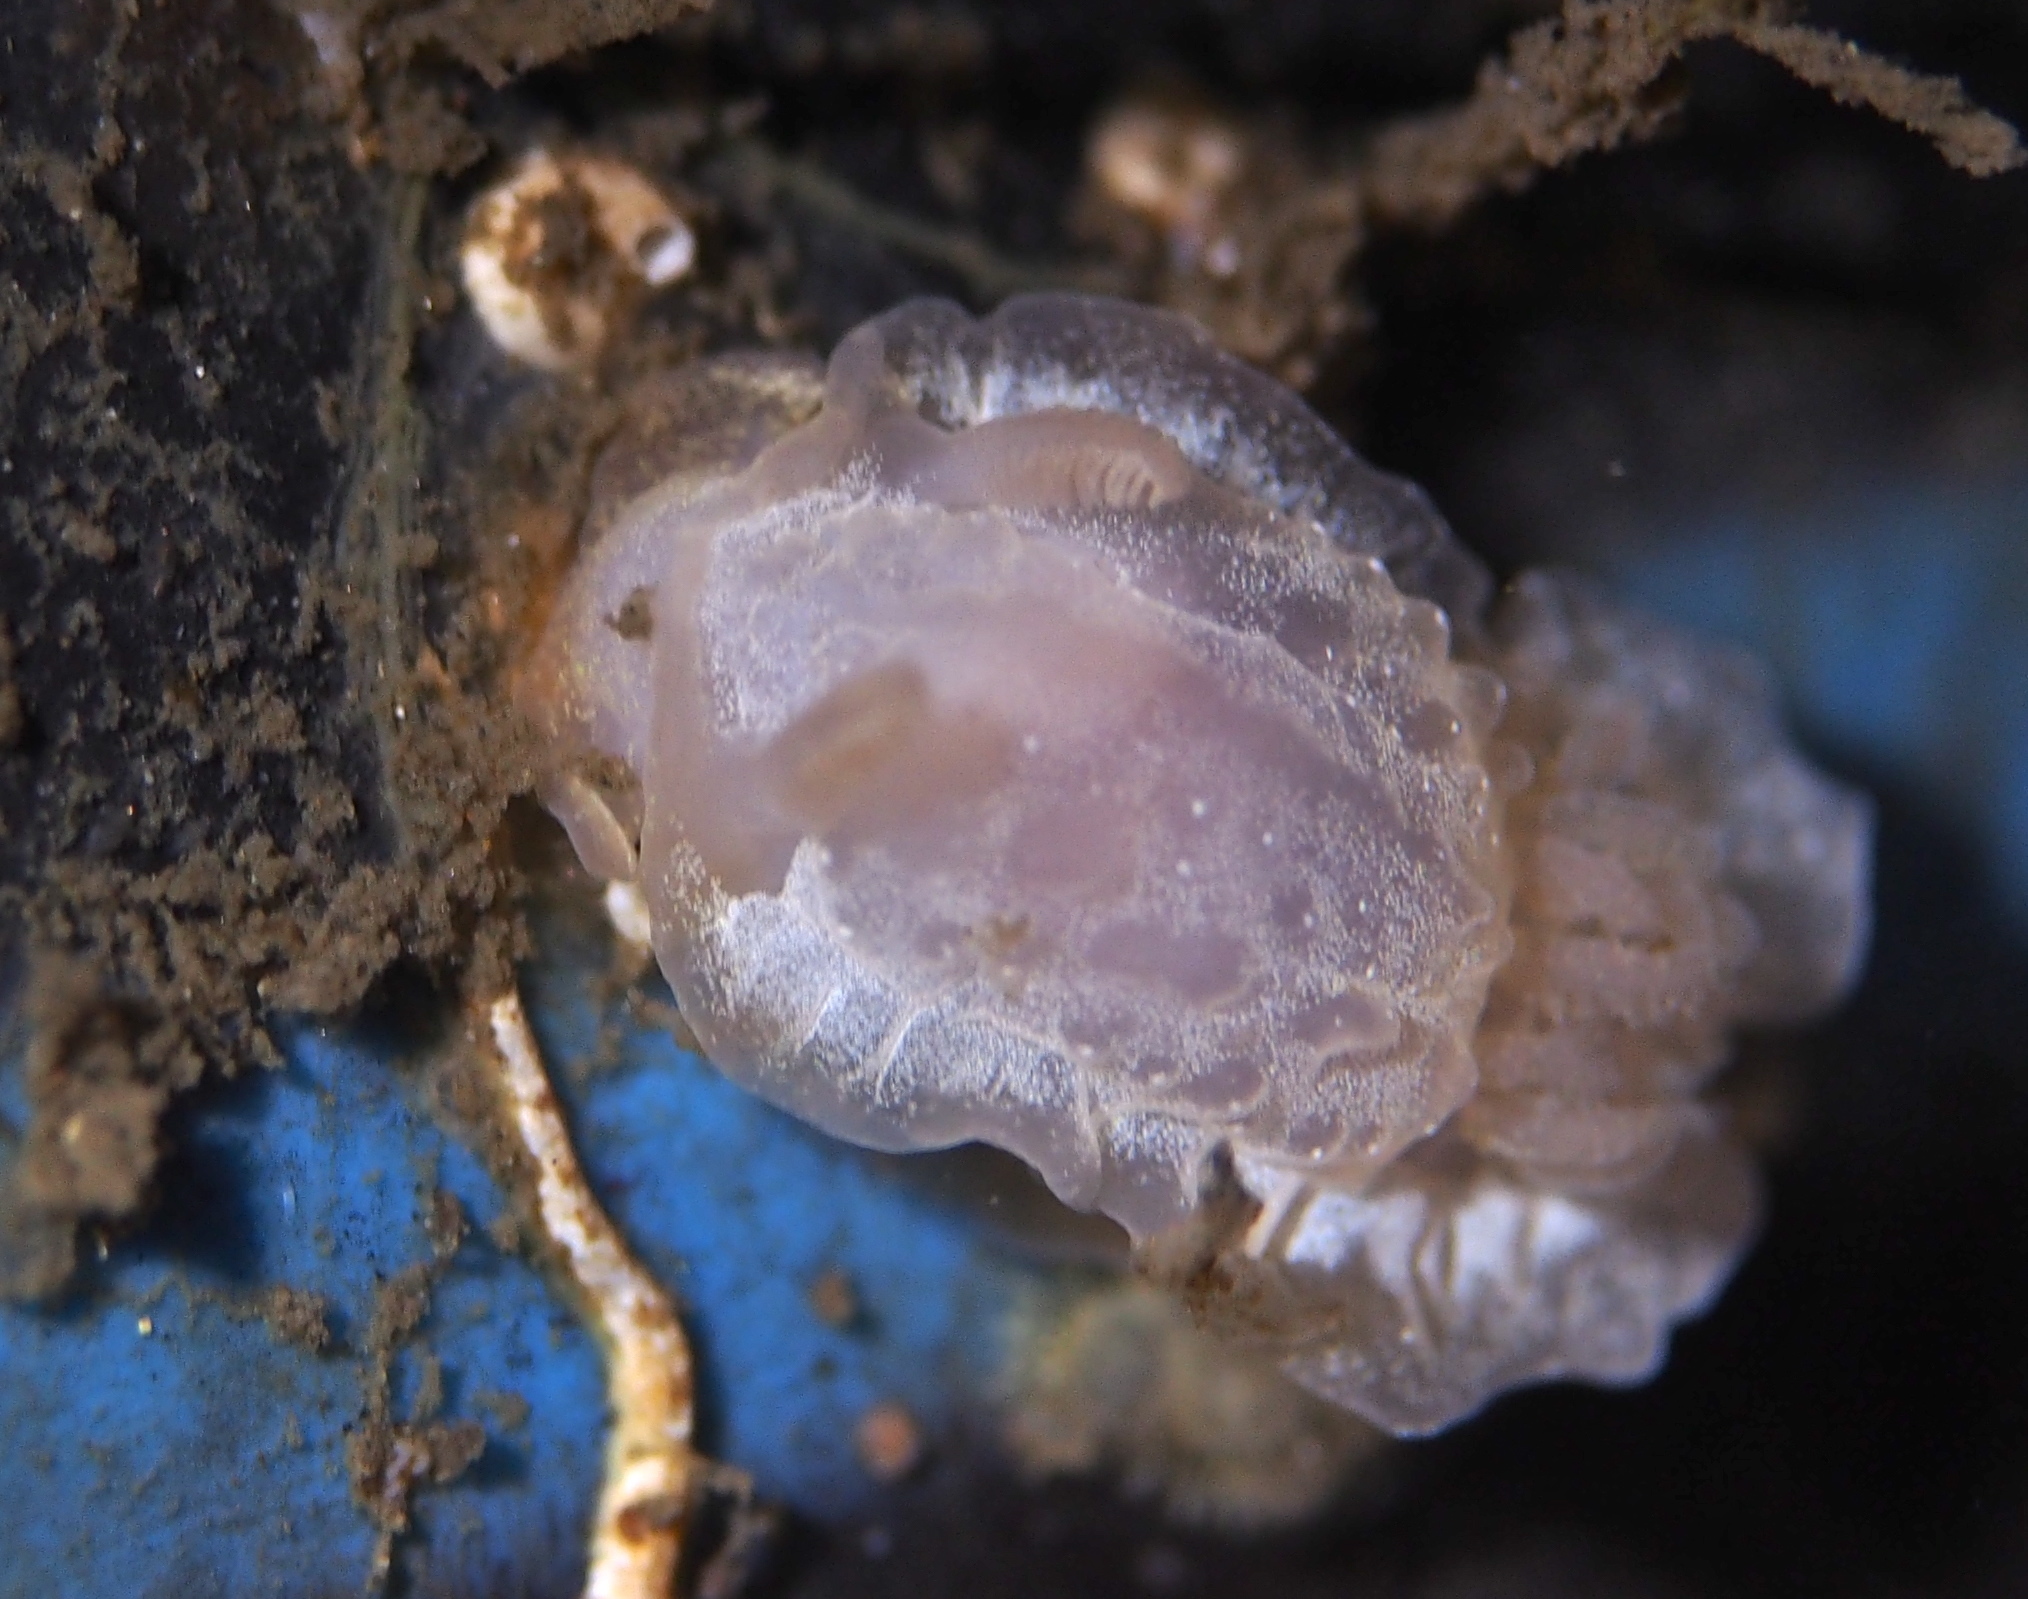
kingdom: Animalia
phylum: Mollusca
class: Gastropoda
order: Nudibranchia
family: Goniodorididae
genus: Okenia
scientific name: Okenia
